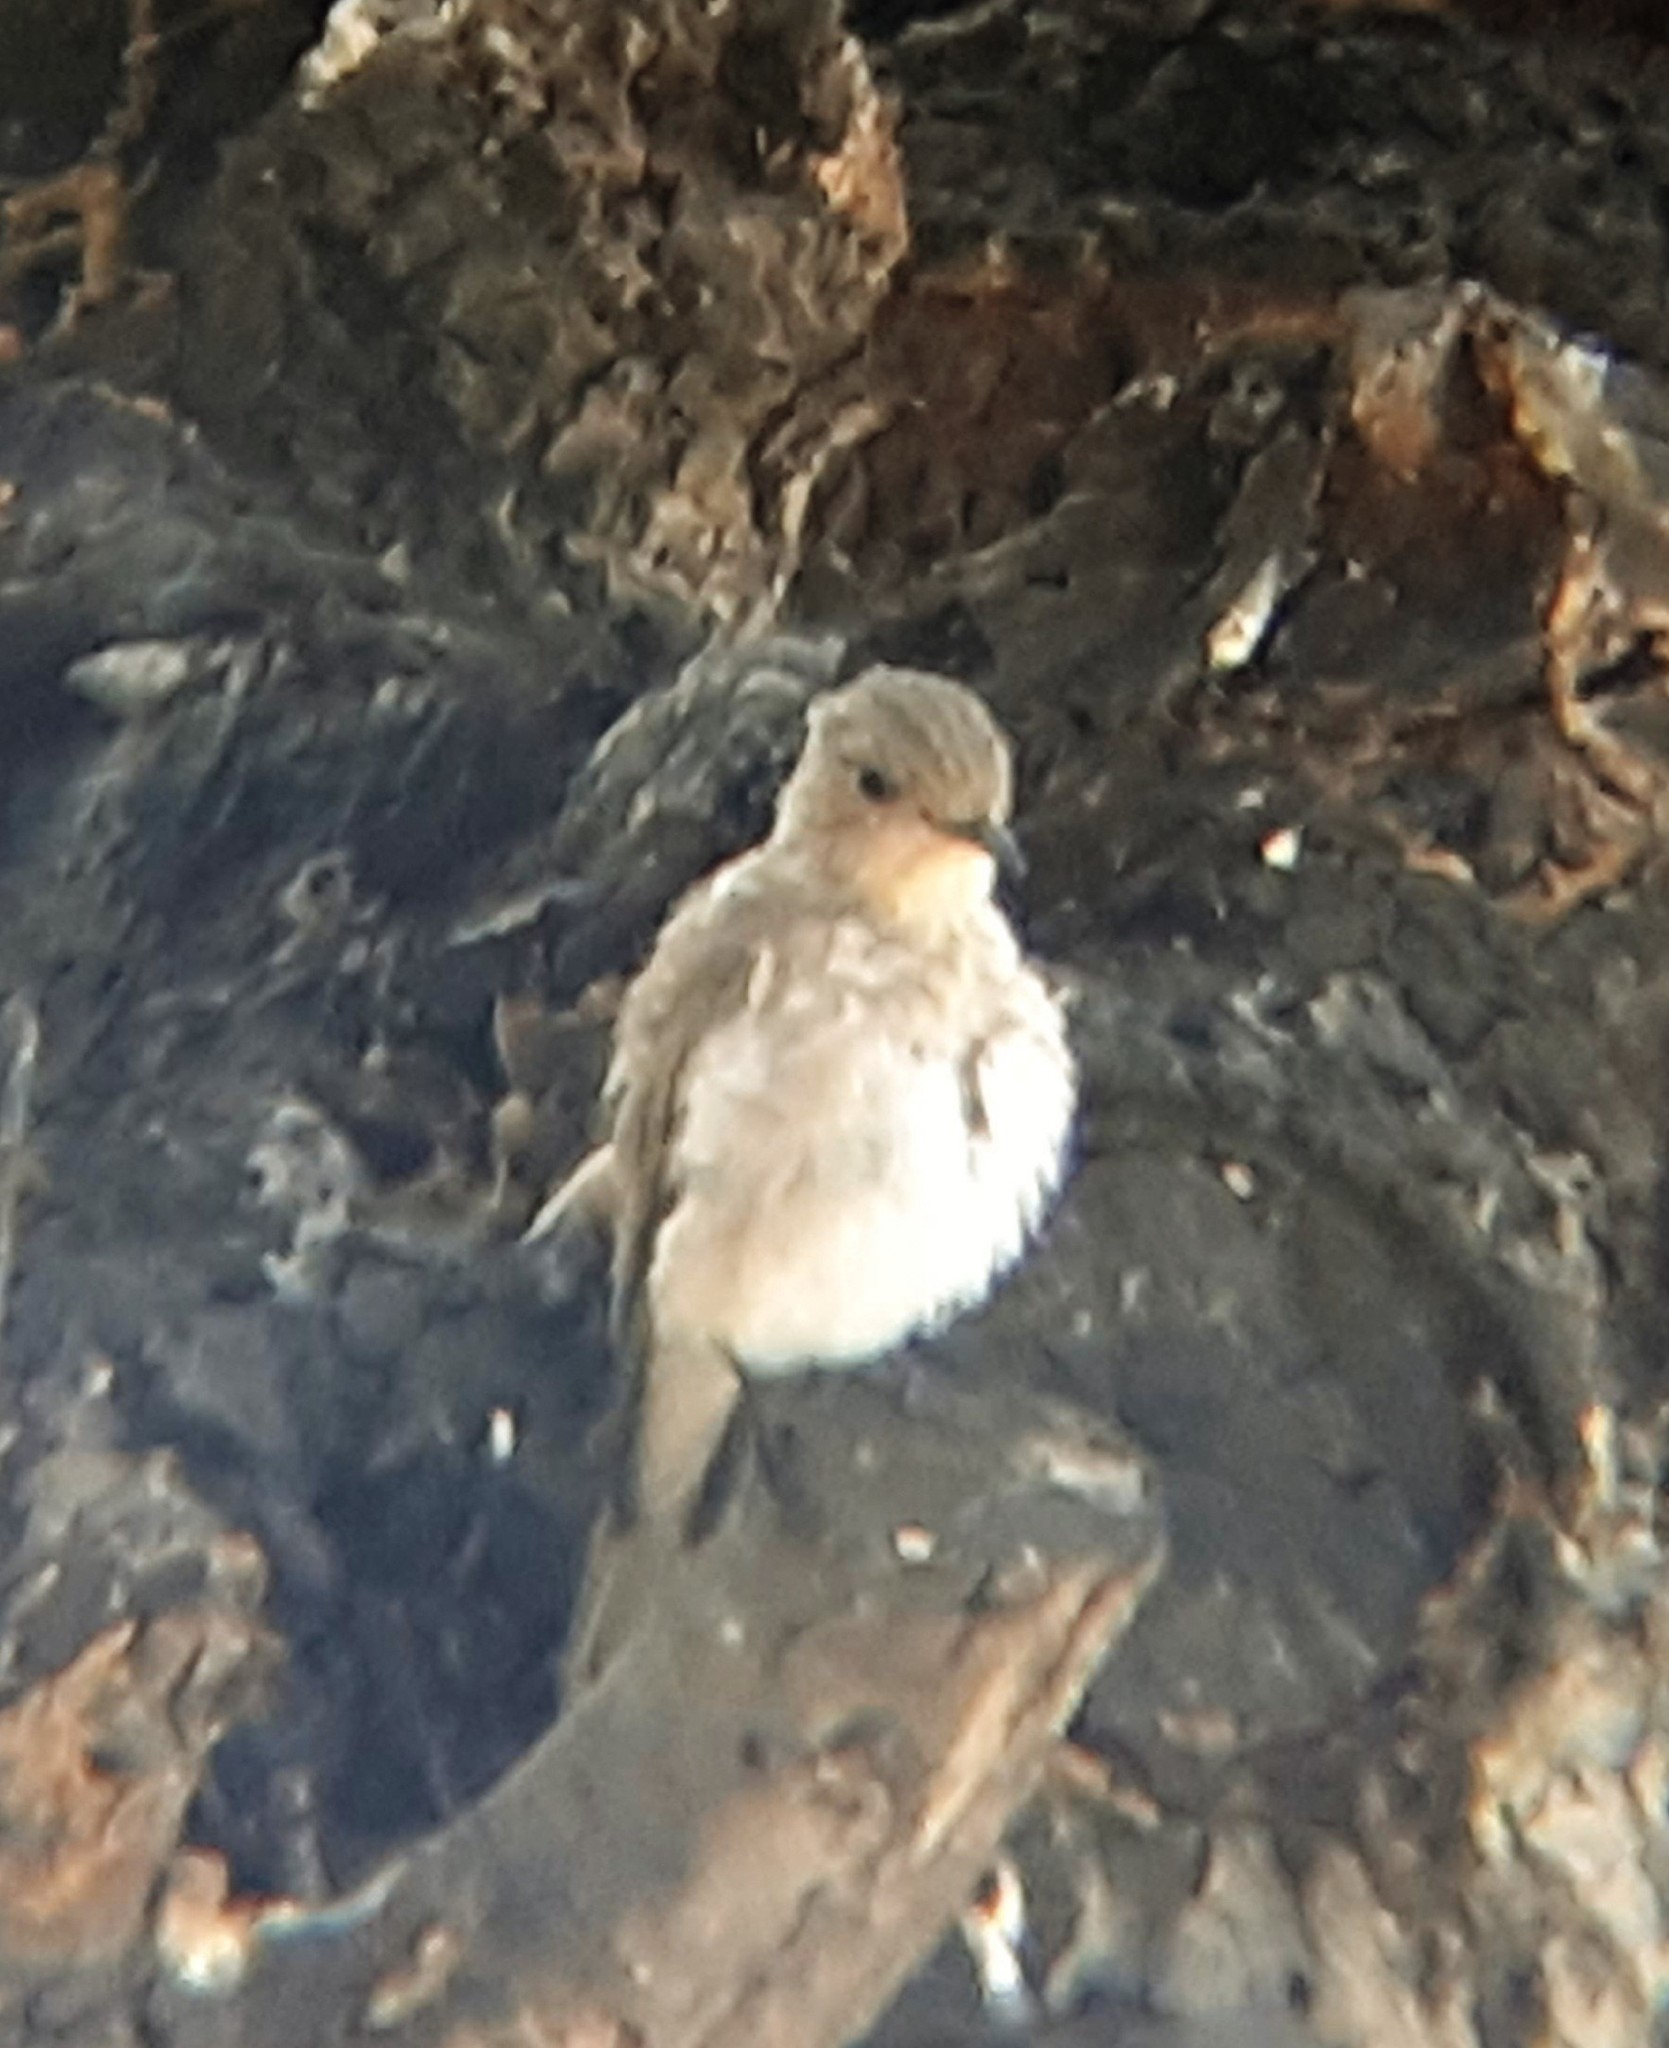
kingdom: Animalia
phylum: Chordata
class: Aves
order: Passeriformes
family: Muscicapidae
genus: Muscicapa
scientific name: Muscicapa striata
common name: Spotted flycatcher
